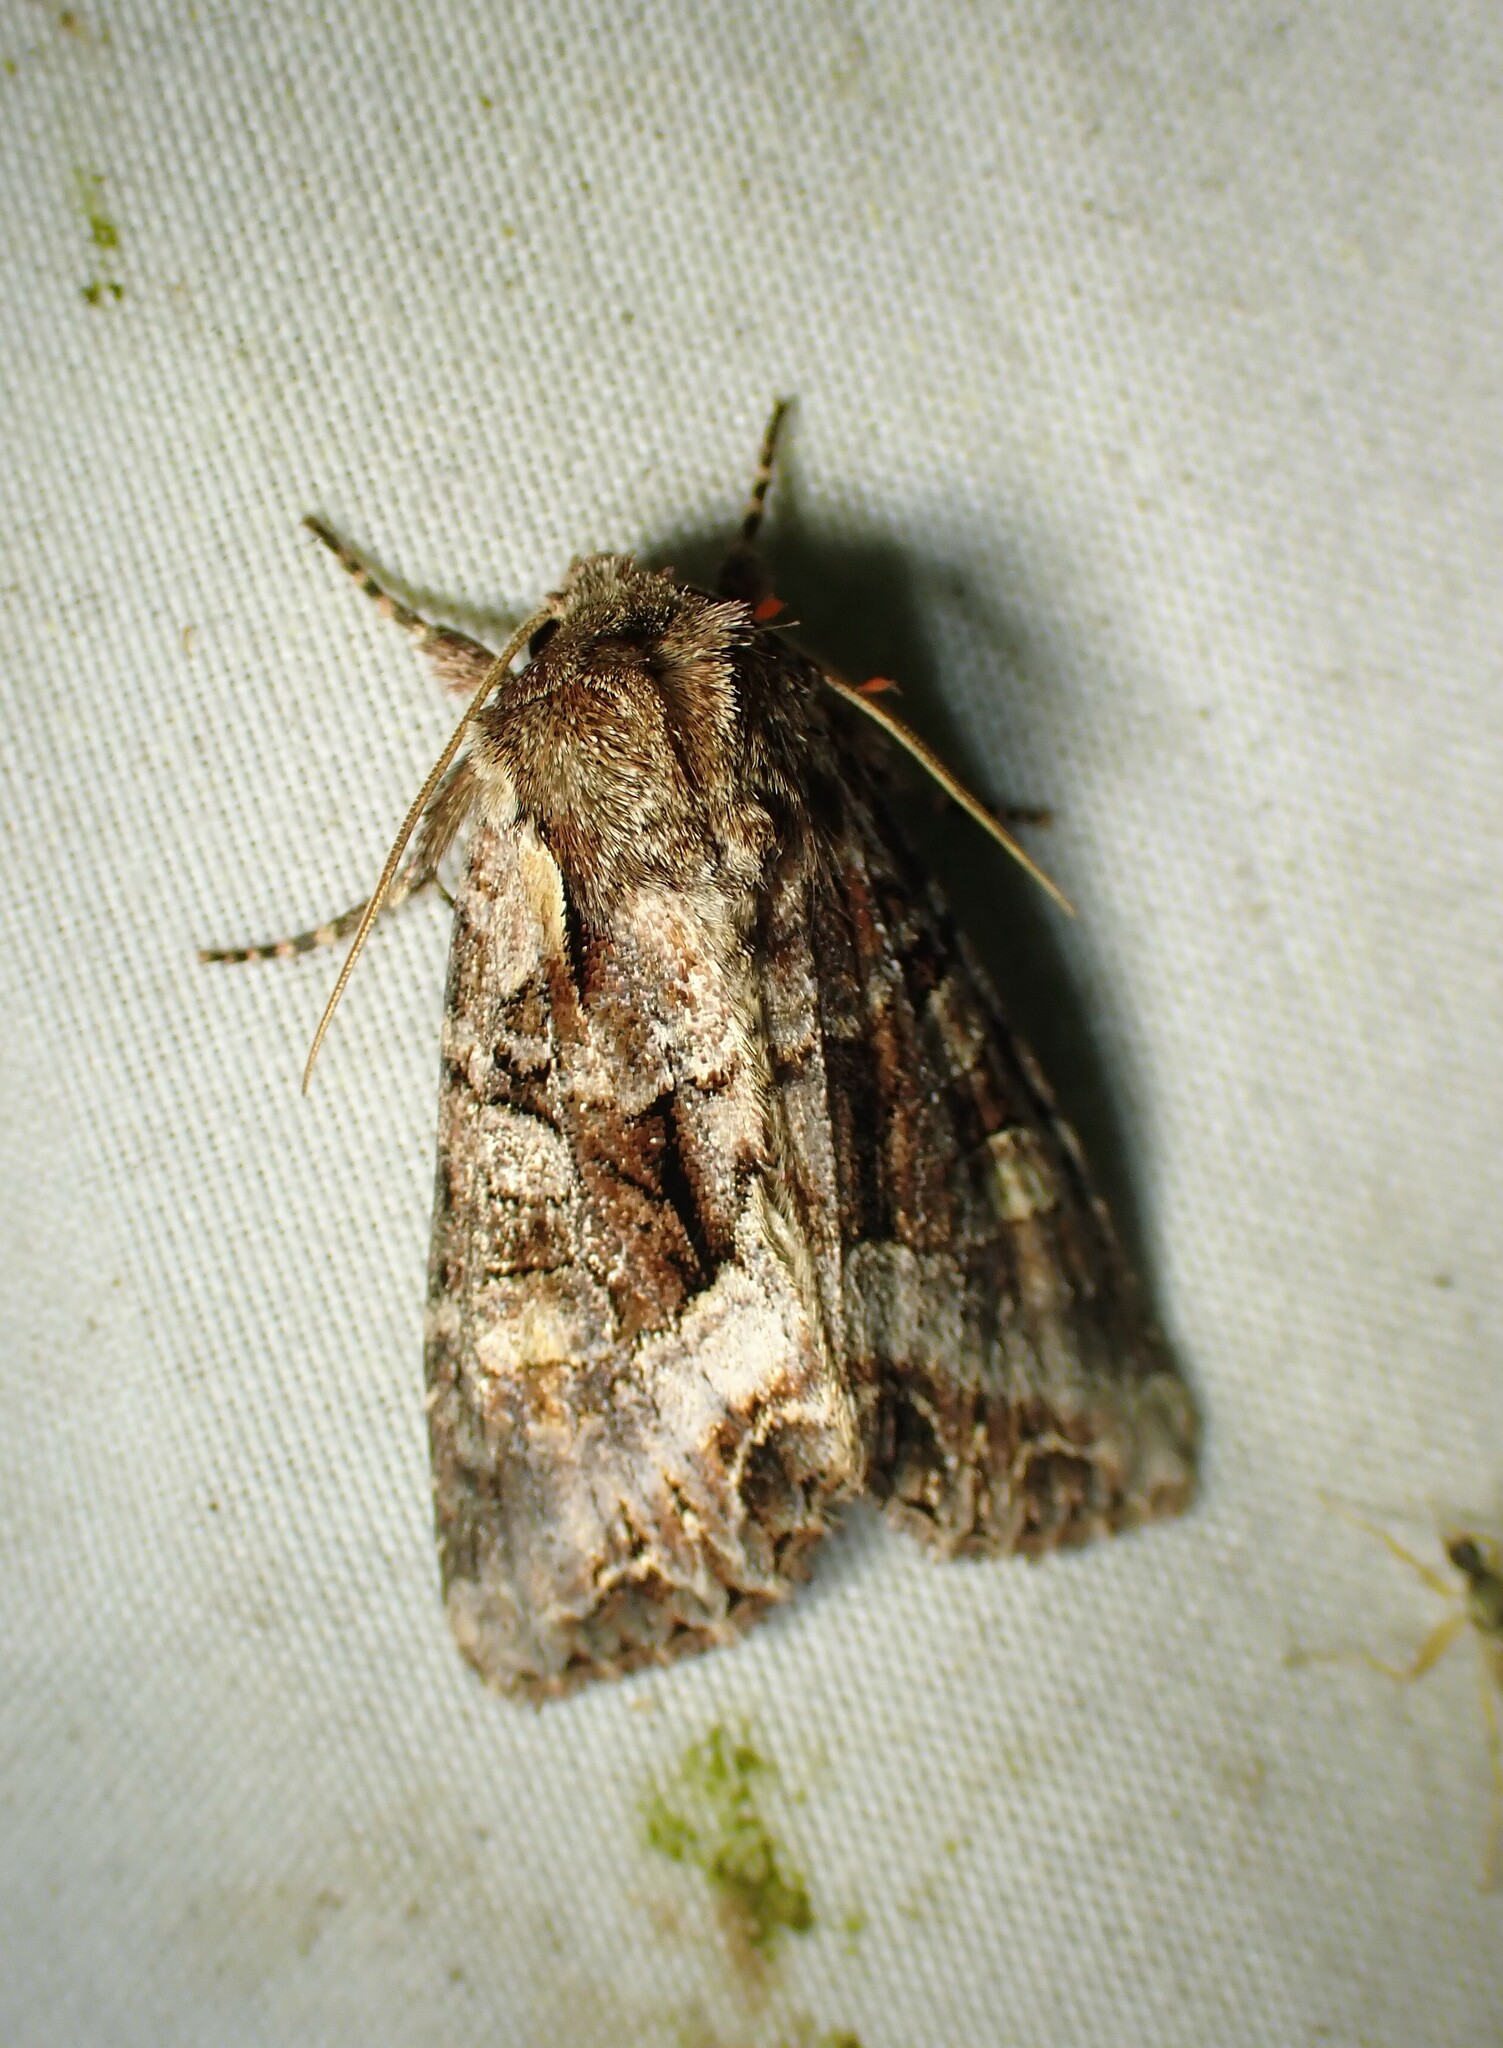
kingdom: Animalia
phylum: Arthropoda
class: Insecta
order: Lepidoptera
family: Noctuidae
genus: Lacanobia
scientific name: Lacanobia grandis
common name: Grand arches moth
